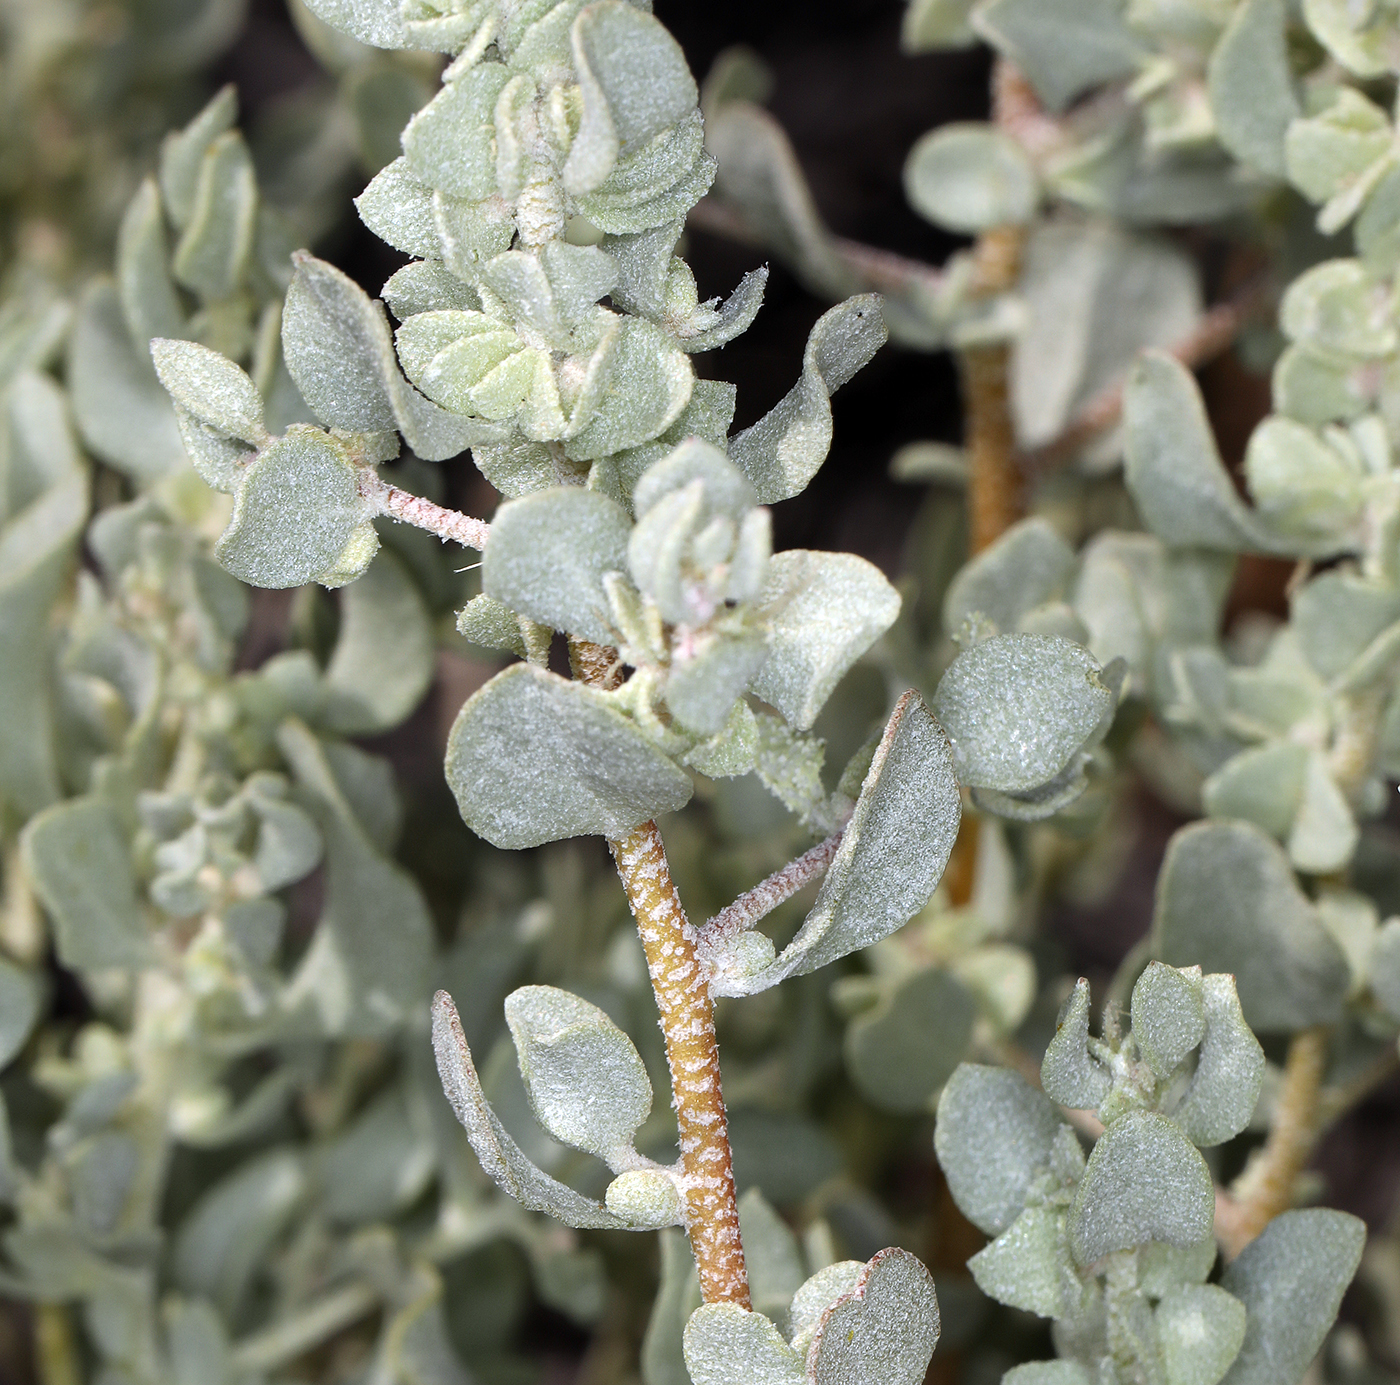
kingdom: Plantae
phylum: Tracheophyta
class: Magnoliopsida
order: Caryophyllales
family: Amaranthaceae
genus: Atriplex
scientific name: Atriplex confertifolia
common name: Shadscale
